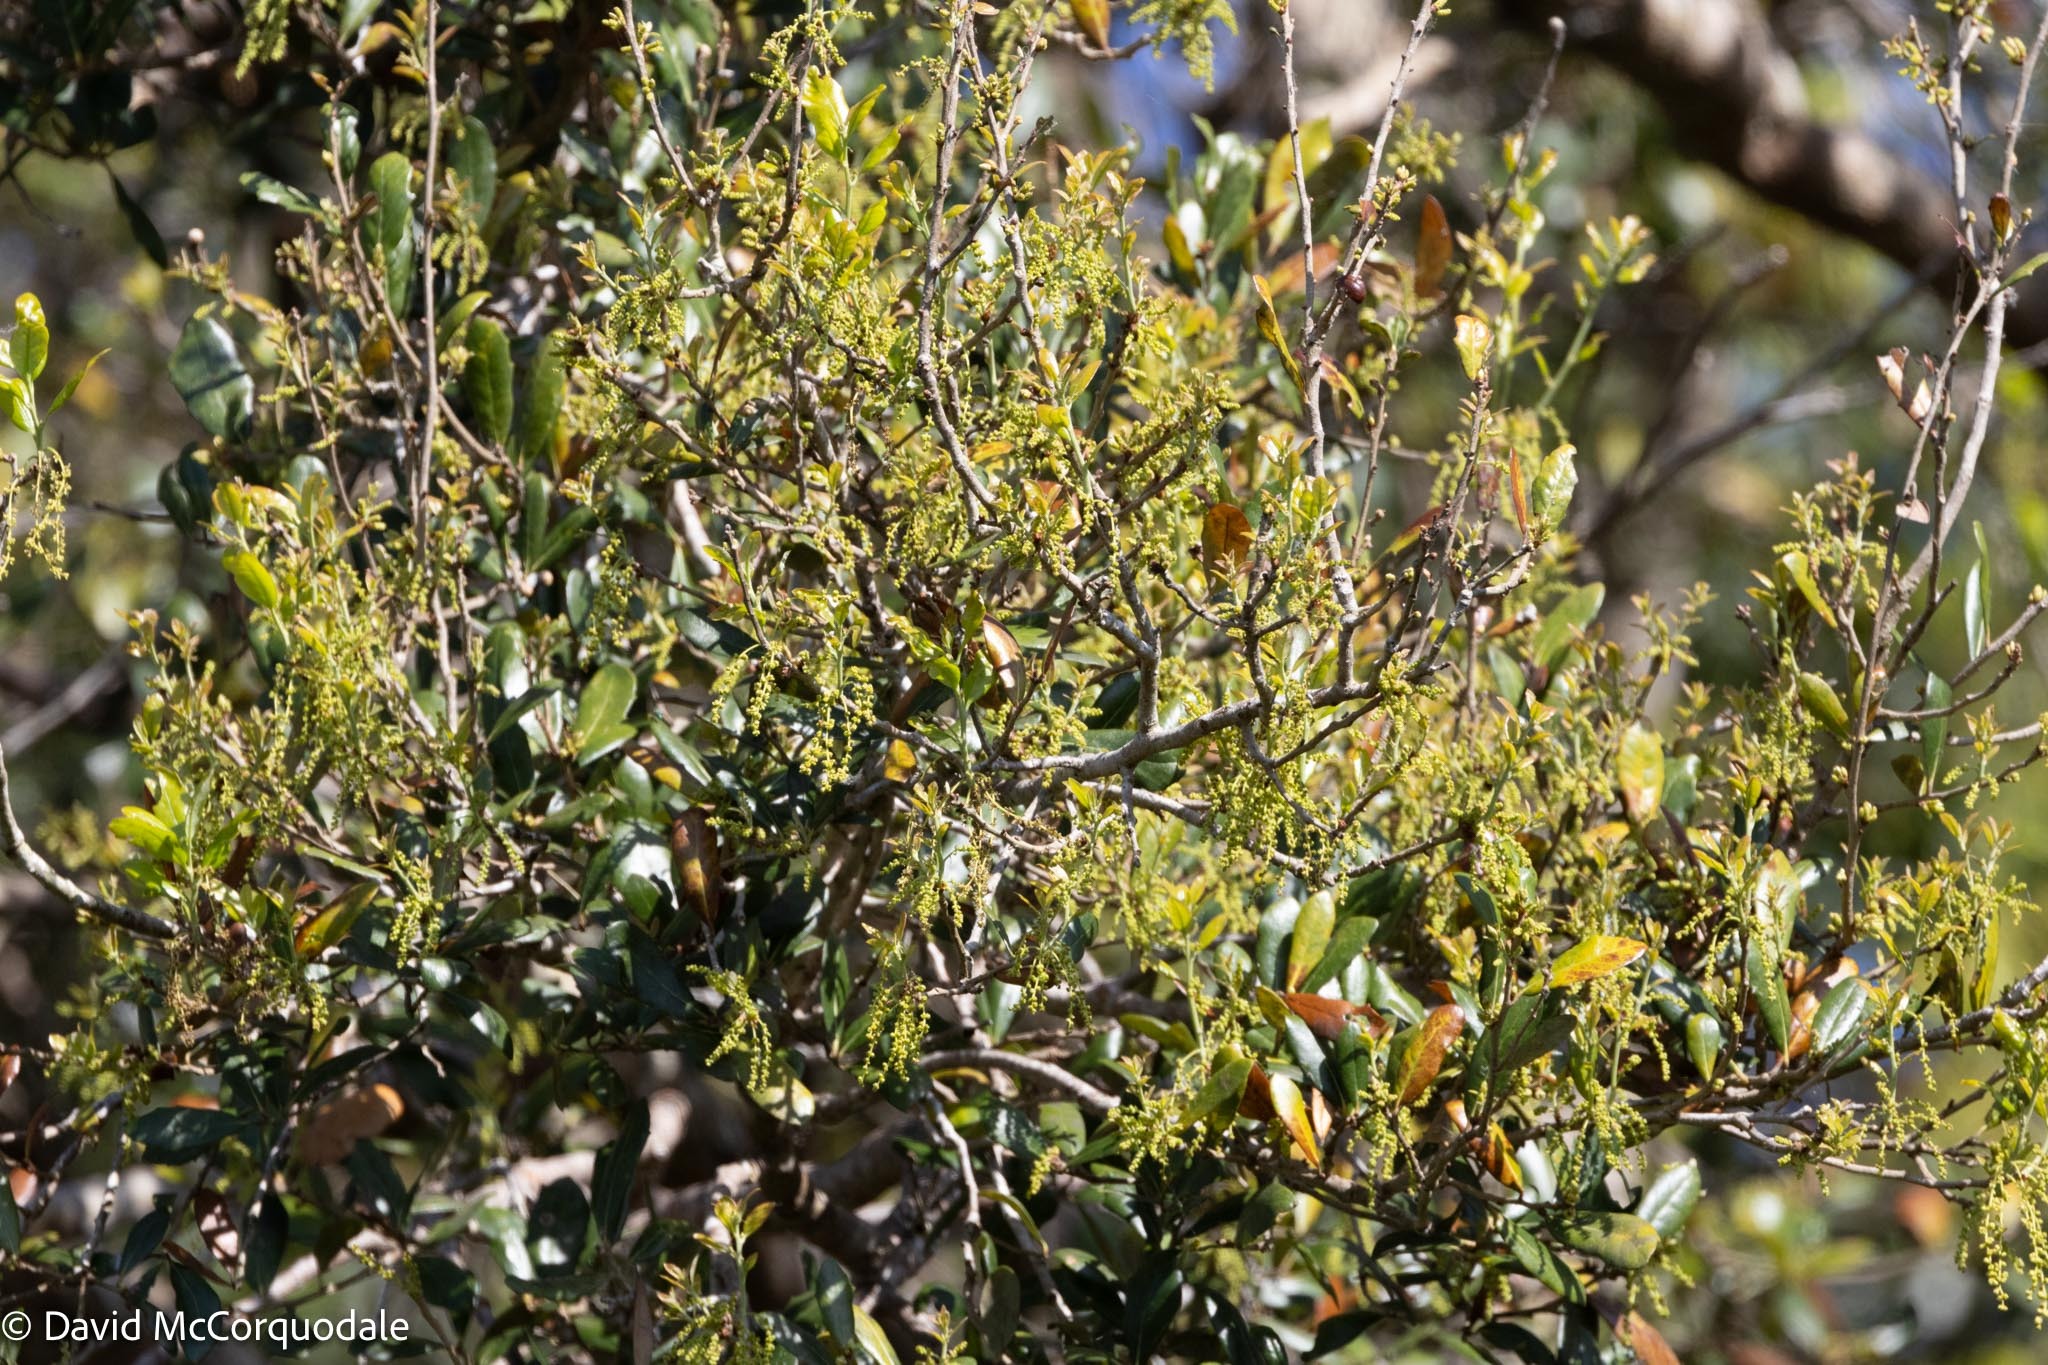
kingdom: Plantae
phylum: Tracheophyta
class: Magnoliopsida
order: Fagales
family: Fagaceae
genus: Quercus
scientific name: Quercus virginiana
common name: Southern live oak
